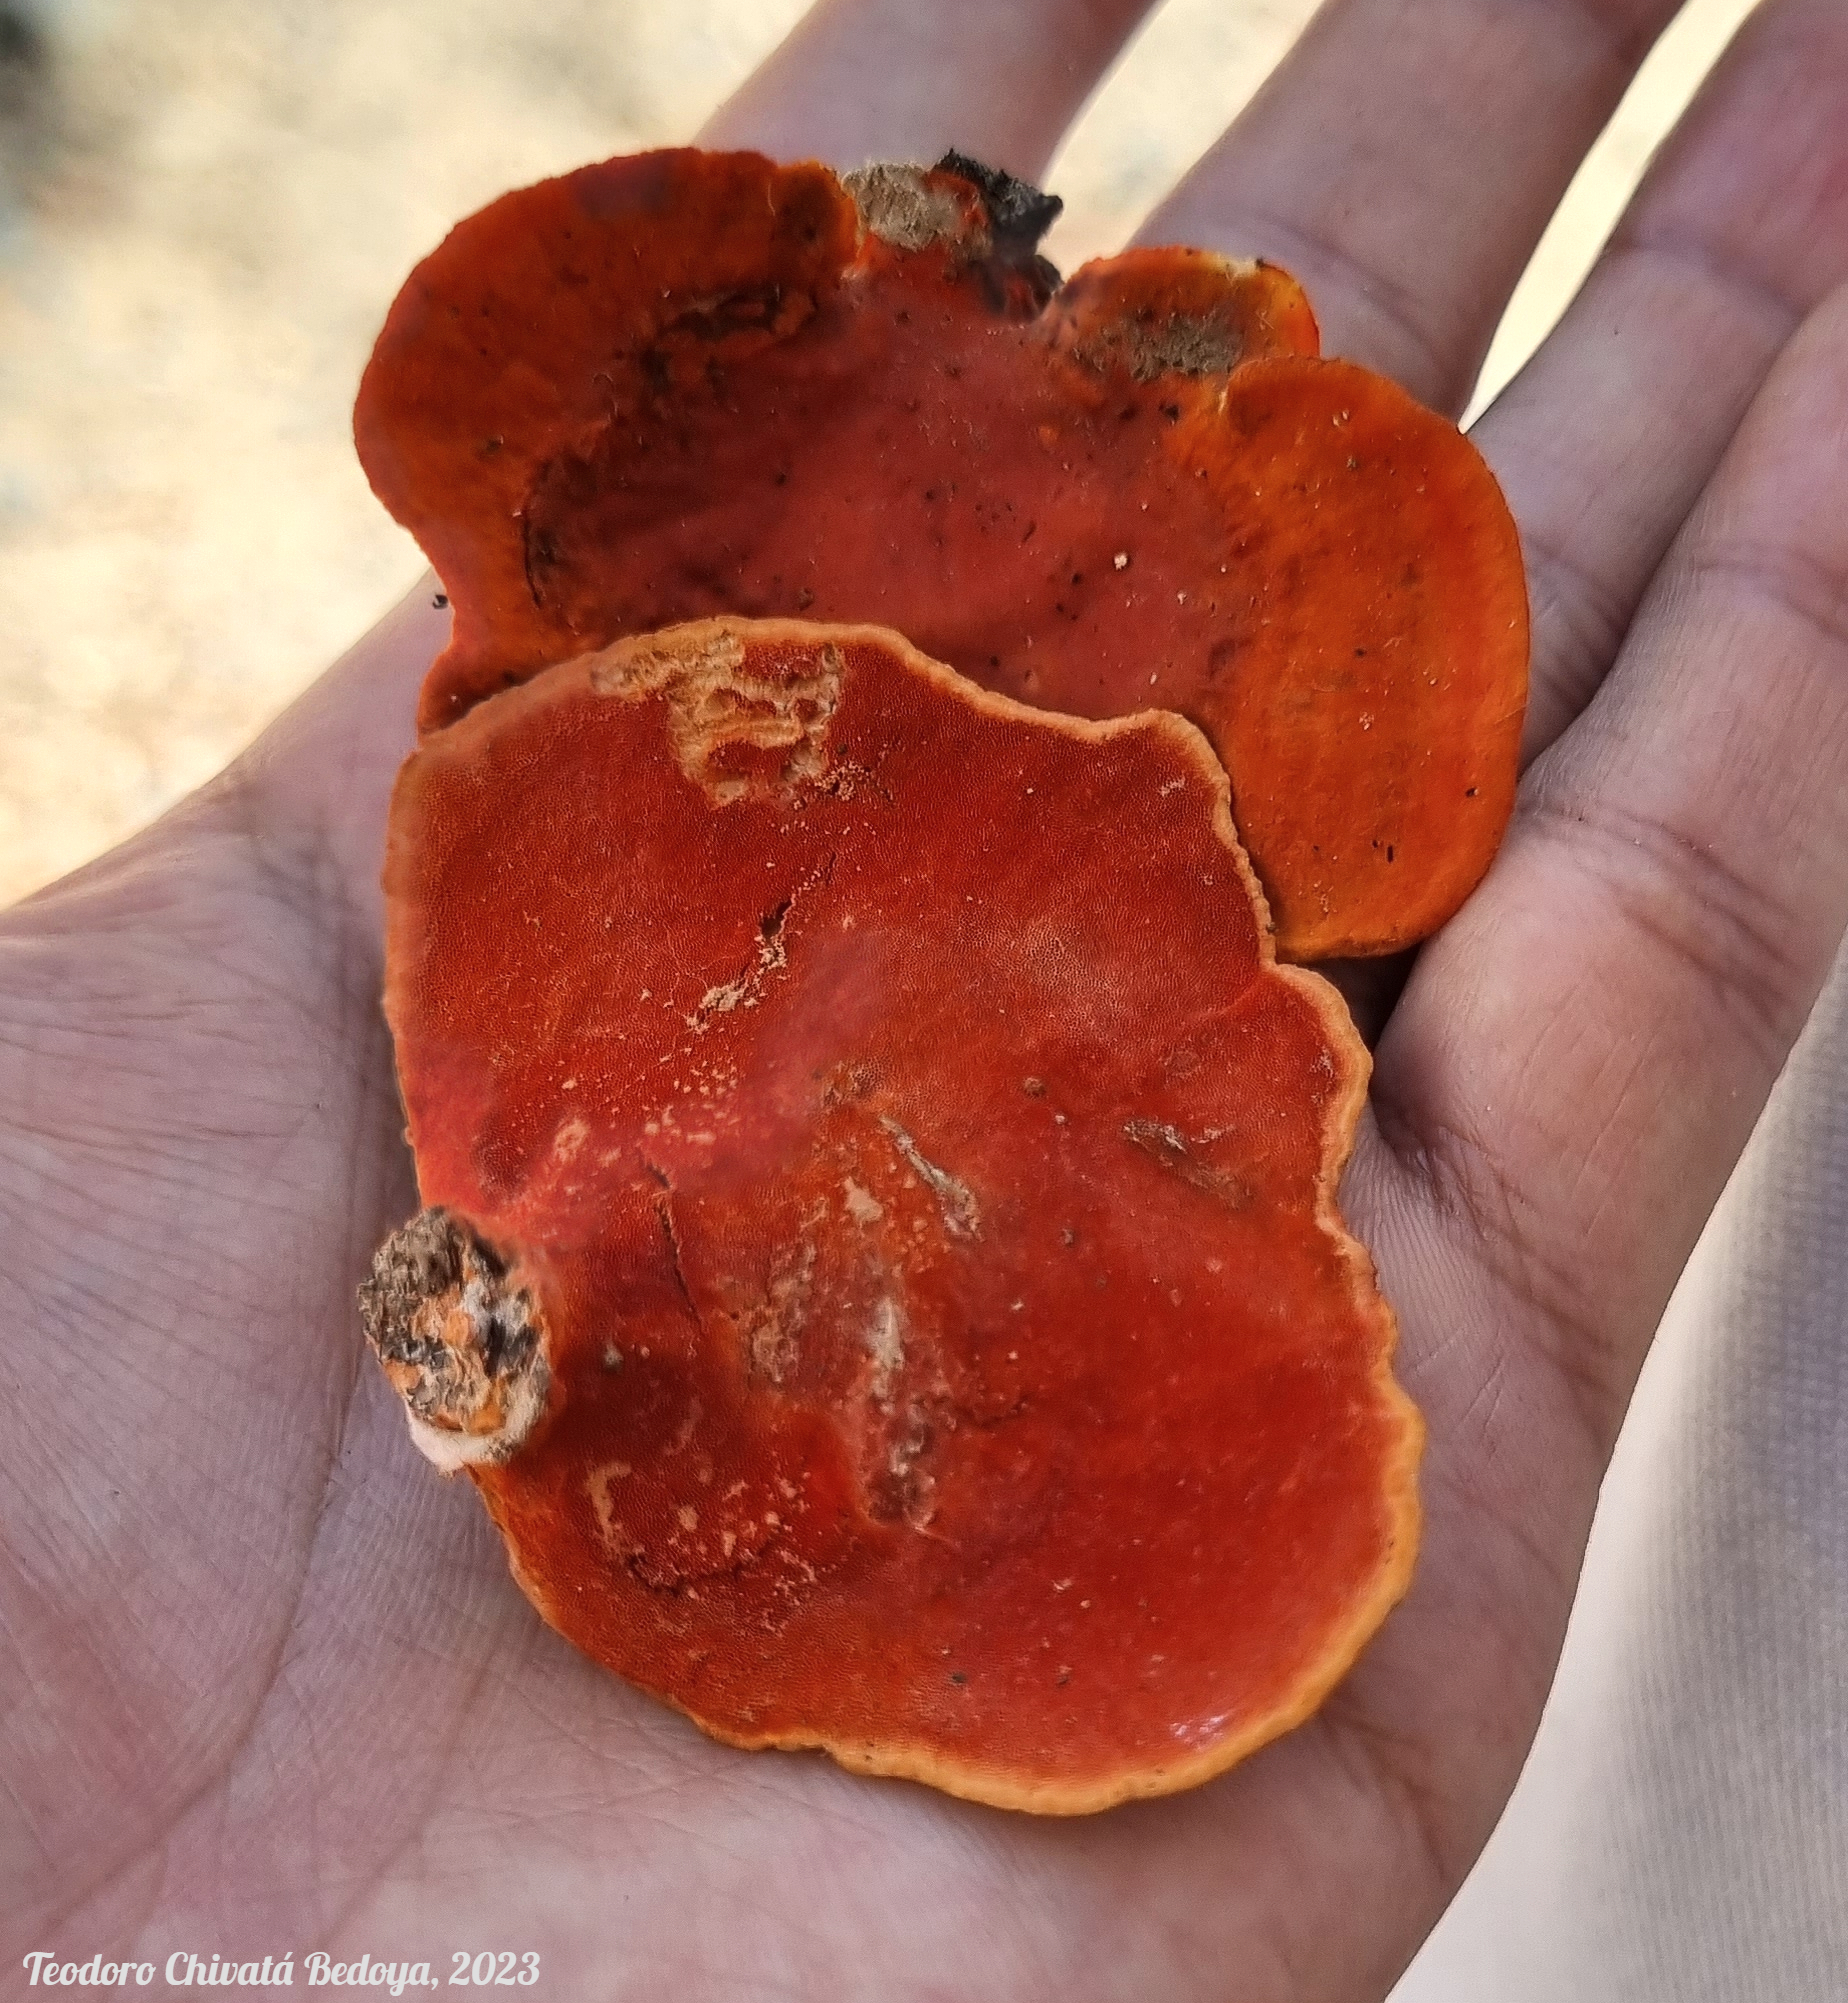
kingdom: Fungi
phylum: Basidiomycota
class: Agaricomycetes
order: Polyporales
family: Polyporaceae
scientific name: Polyporaceae
